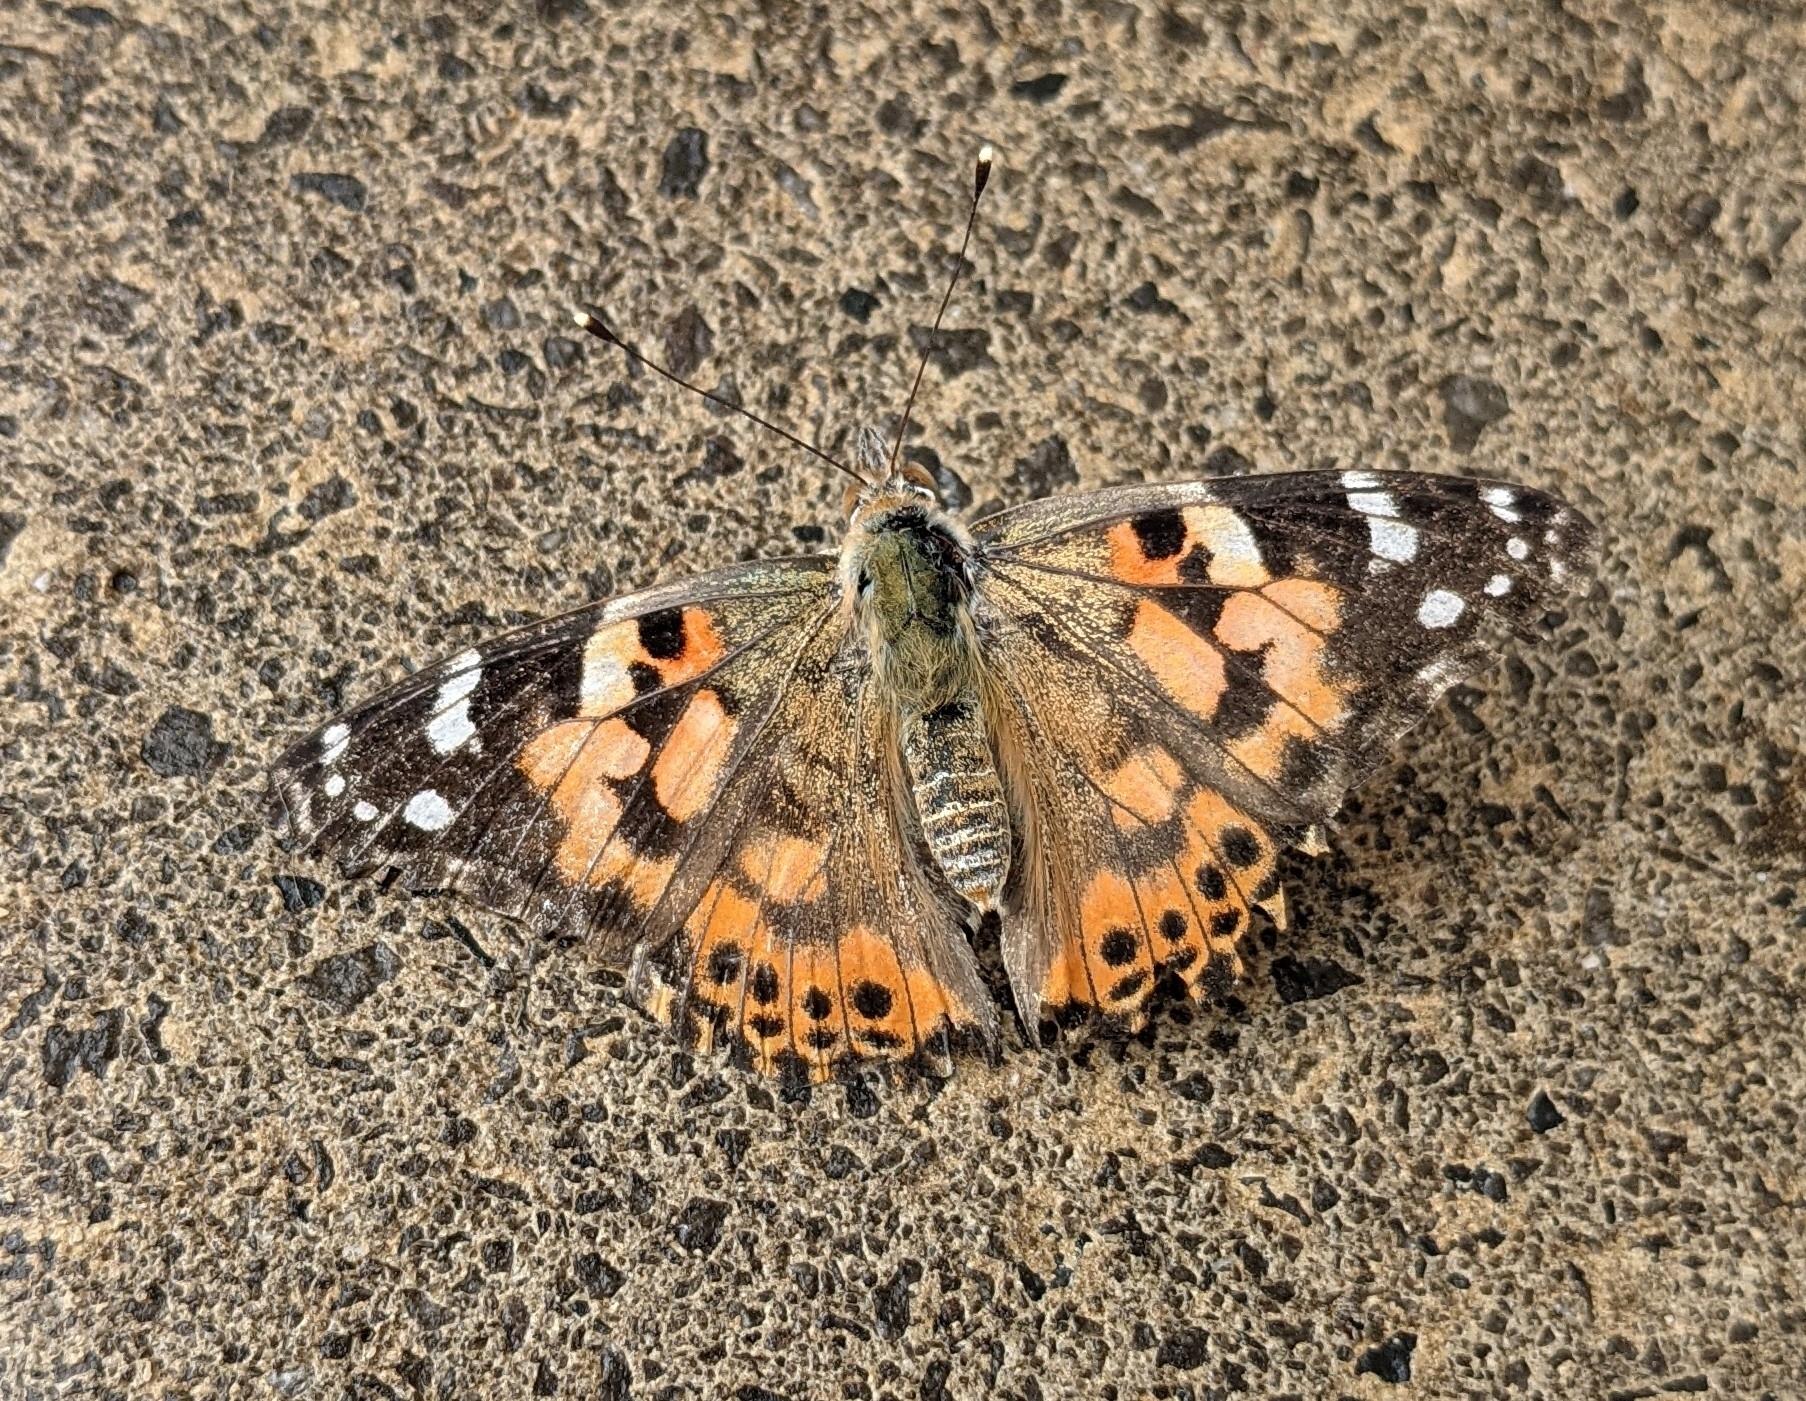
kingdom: Animalia
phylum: Arthropoda
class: Insecta
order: Lepidoptera
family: Nymphalidae
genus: Vanessa
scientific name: Vanessa cardui
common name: Painted lady
